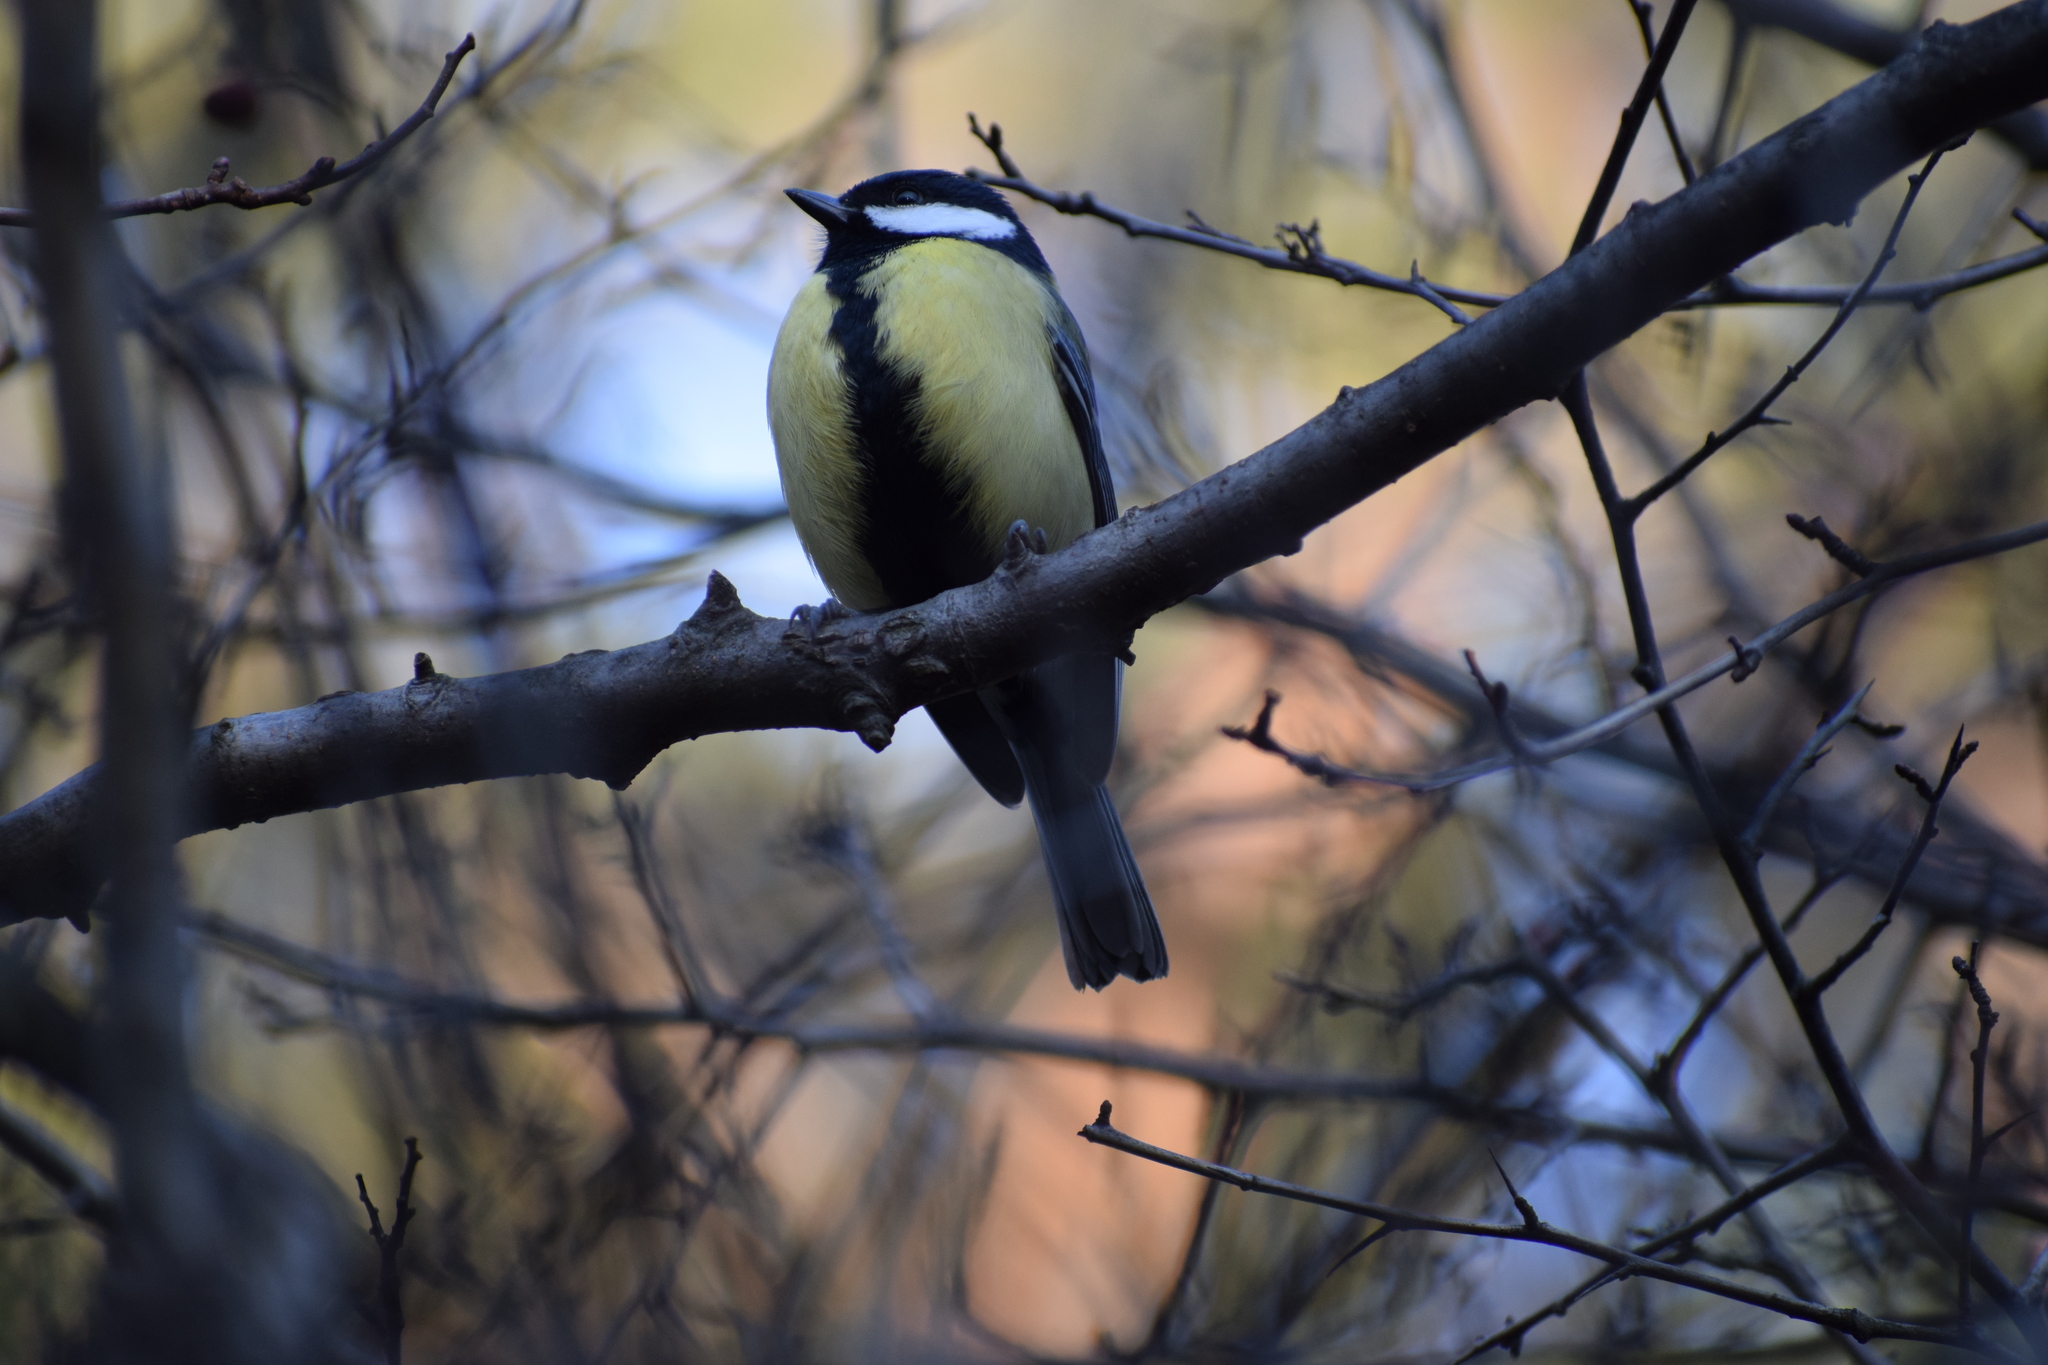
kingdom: Animalia
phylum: Chordata
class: Aves
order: Passeriformes
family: Paridae
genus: Parus
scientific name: Parus major
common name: Great tit
